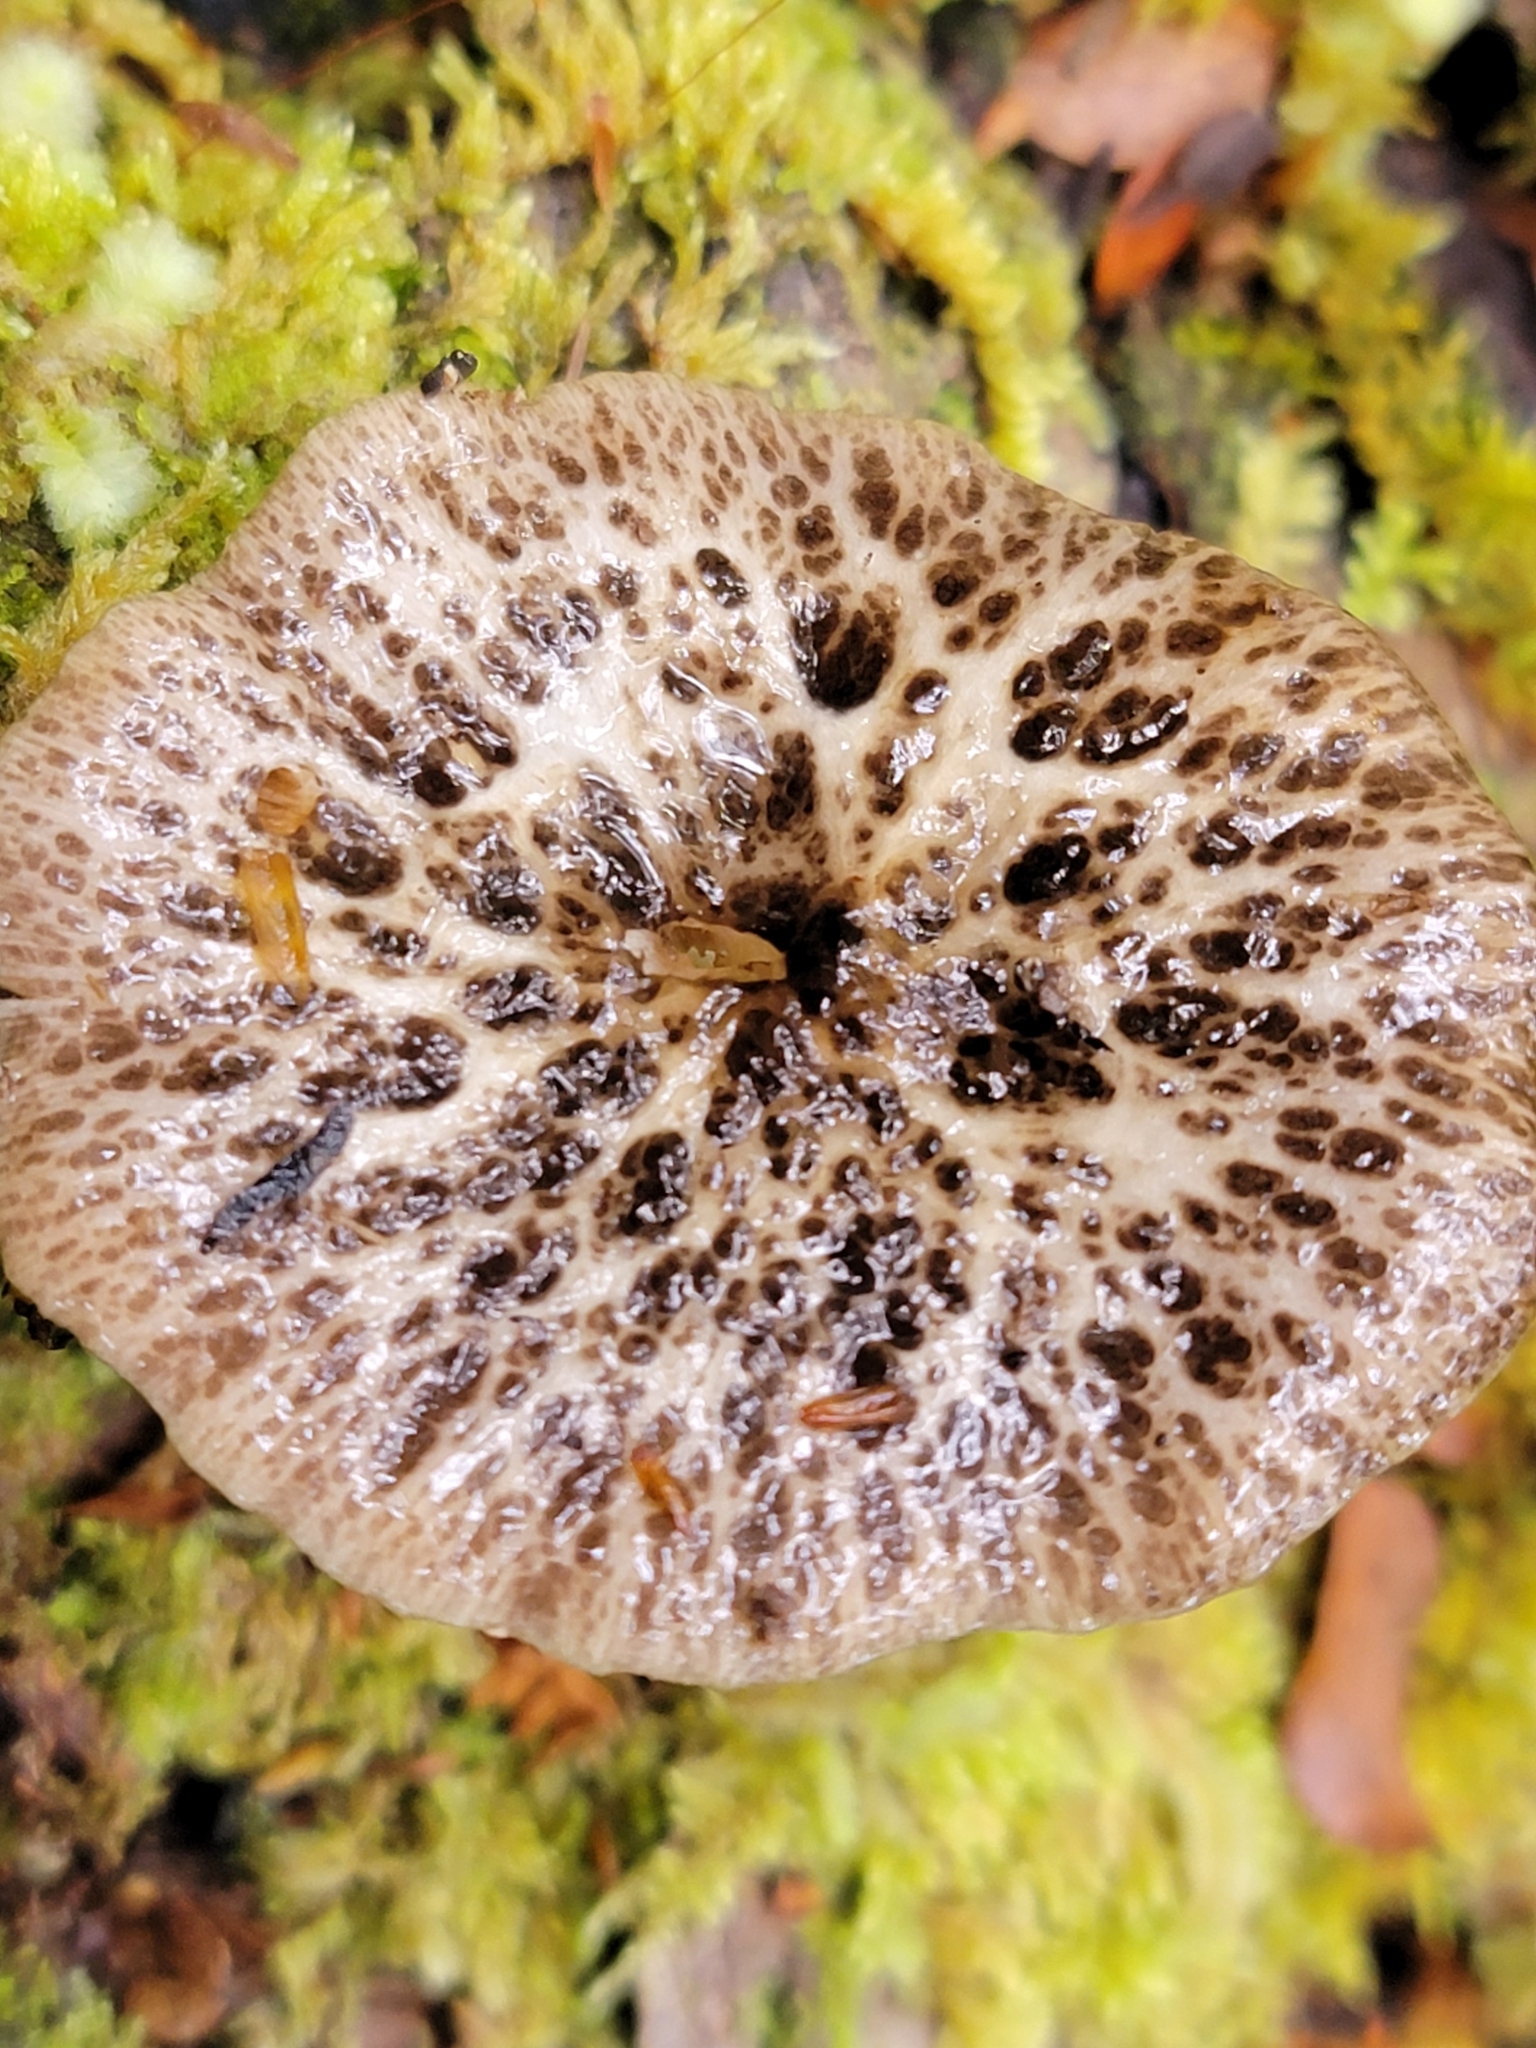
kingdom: Fungi
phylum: Basidiomycota
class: Agaricomycetes
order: Agaricales
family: Bolbitiaceae
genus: Bolbitius
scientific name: Bolbitius muscicola
